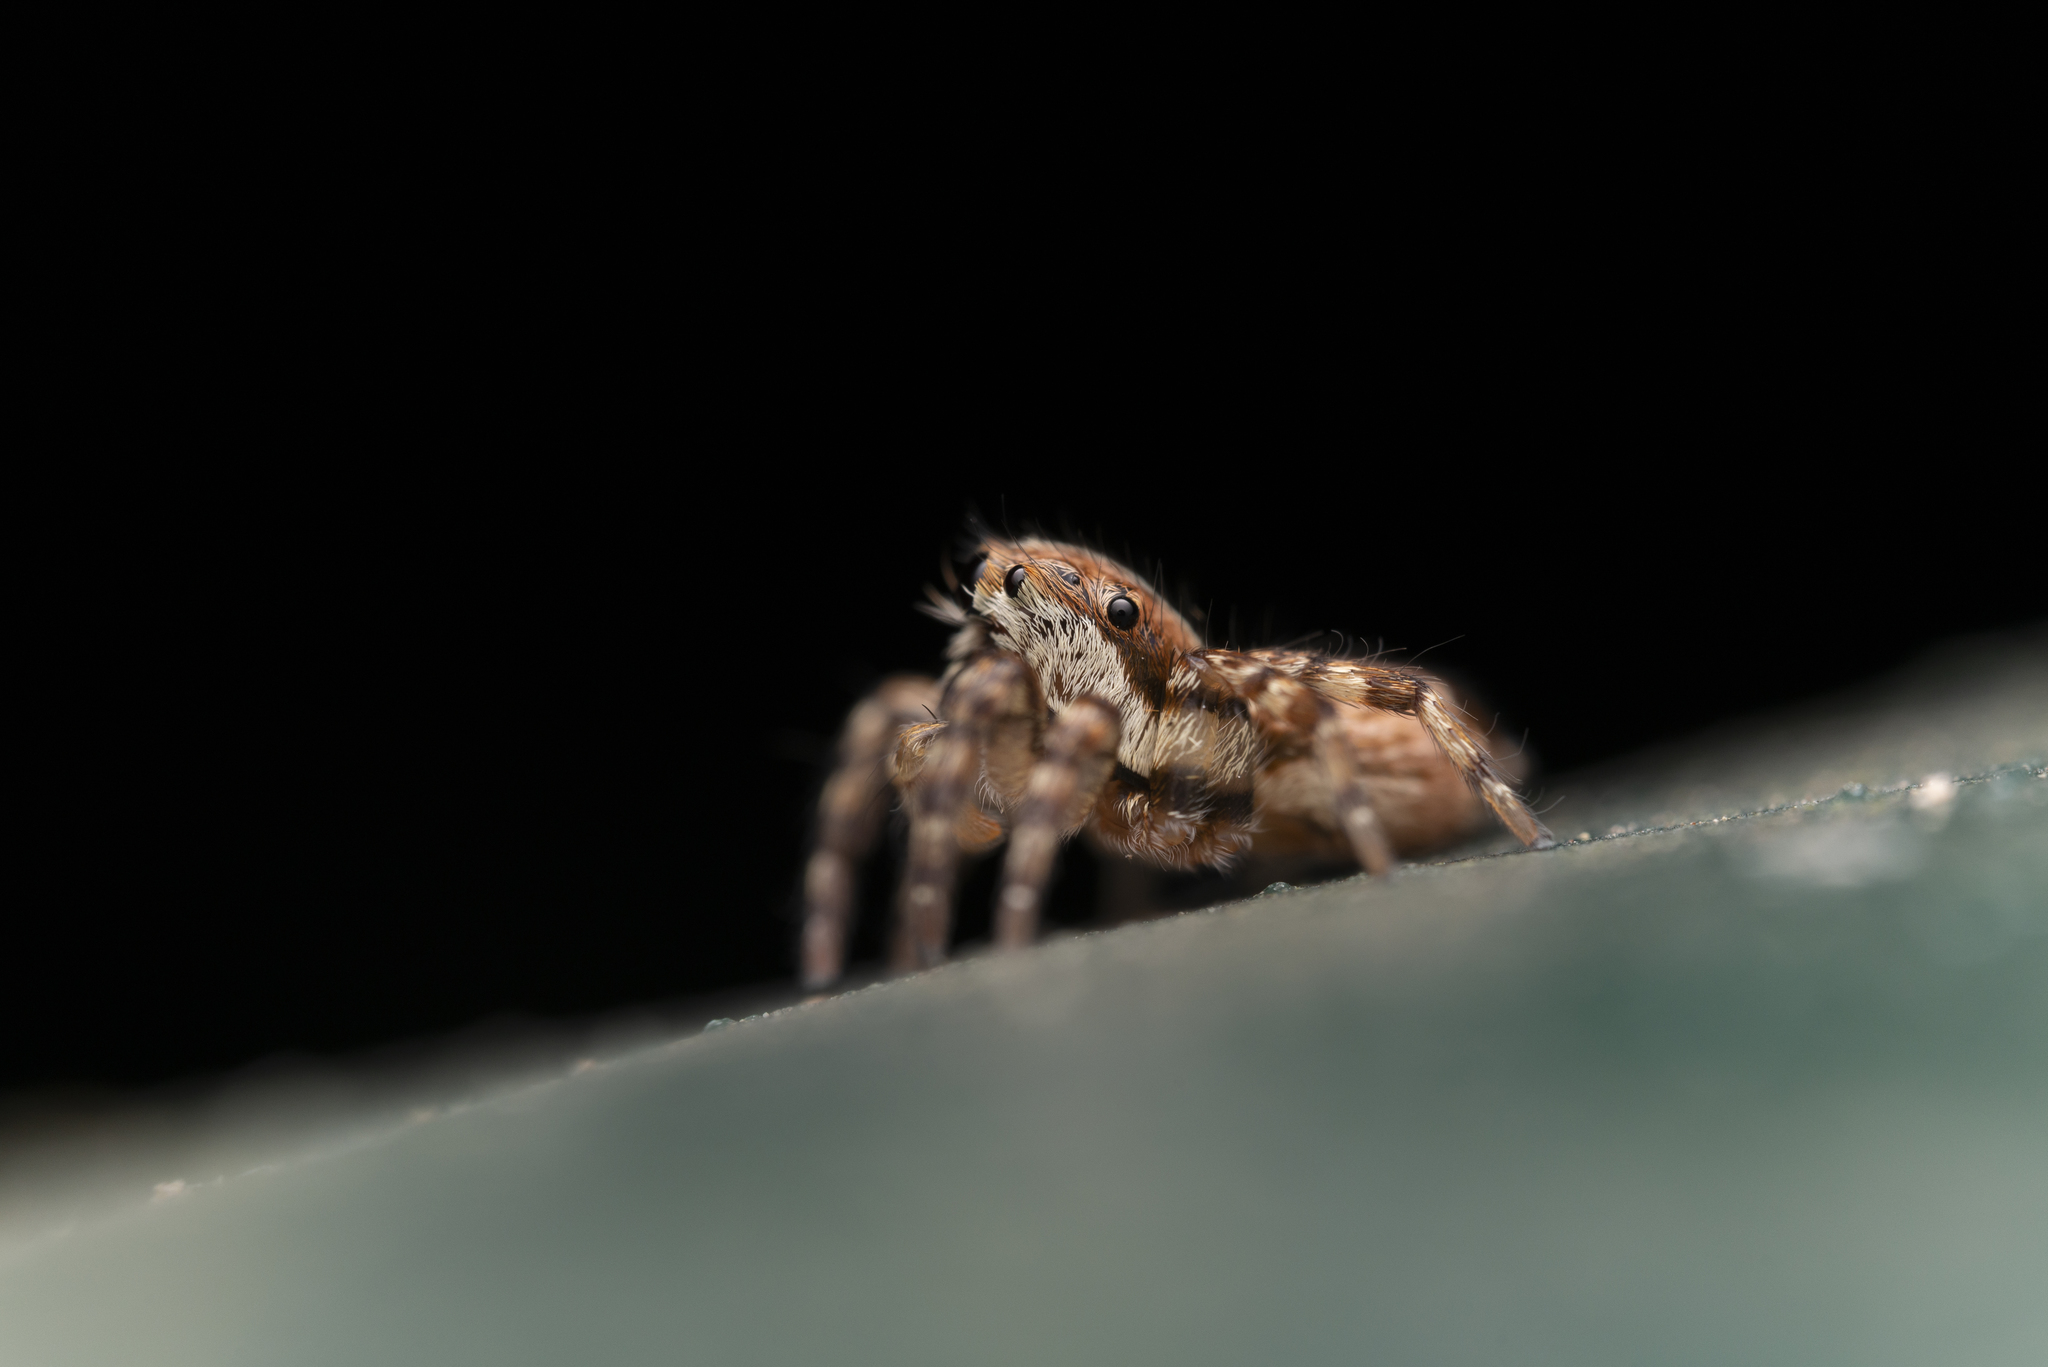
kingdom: Animalia
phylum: Arthropoda
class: Arachnida
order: Araneae
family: Salticidae
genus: Thyene
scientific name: Thyene orientalis
